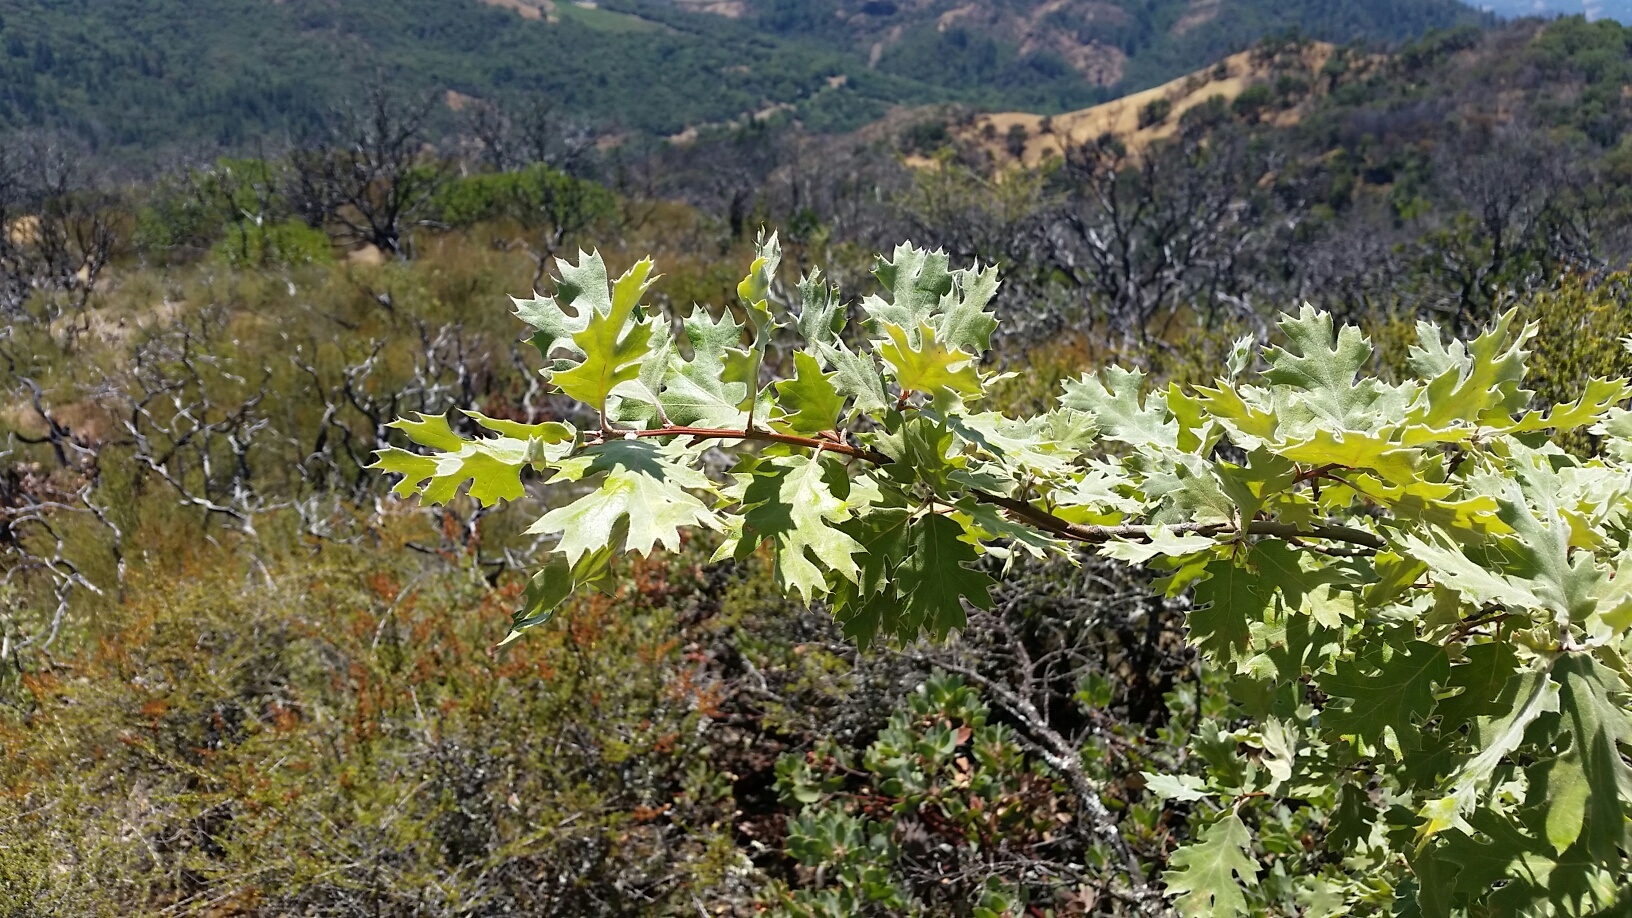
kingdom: Plantae
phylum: Tracheophyta
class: Magnoliopsida
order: Fagales
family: Fagaceae
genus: Quercus
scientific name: Quercus kelloggii
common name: California black oak
